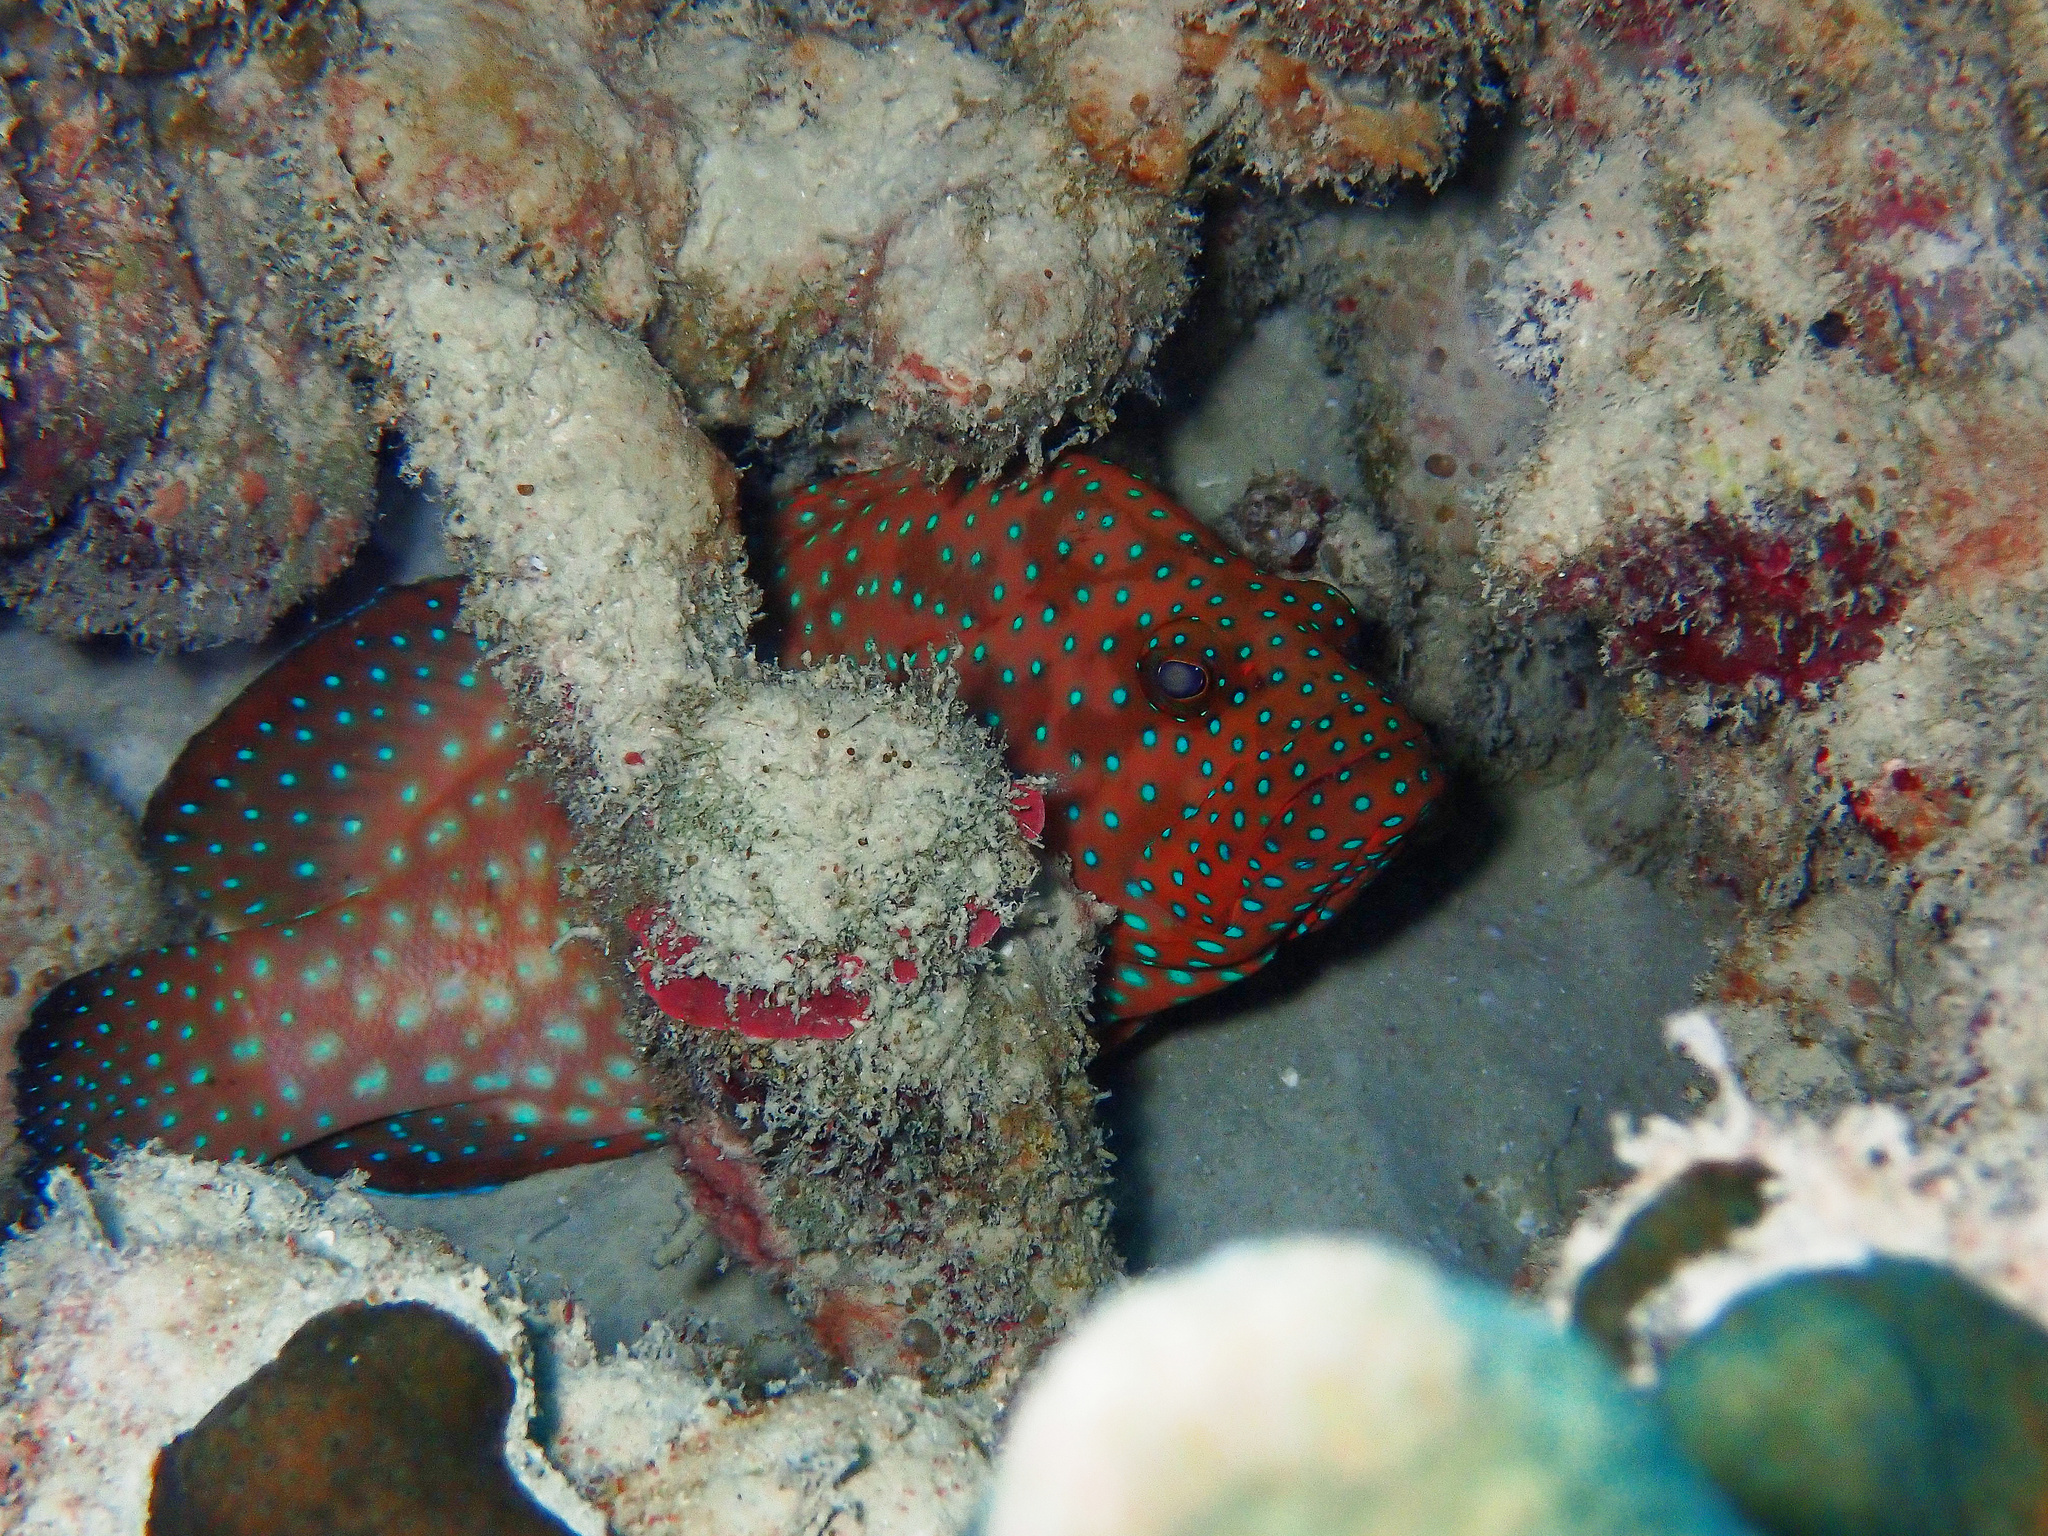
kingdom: Animalia
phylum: Chordata
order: Perciformes
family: Serranidae
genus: Cephalopholis
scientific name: Cephalopholis cyanostigma
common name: Bluespotted hind
